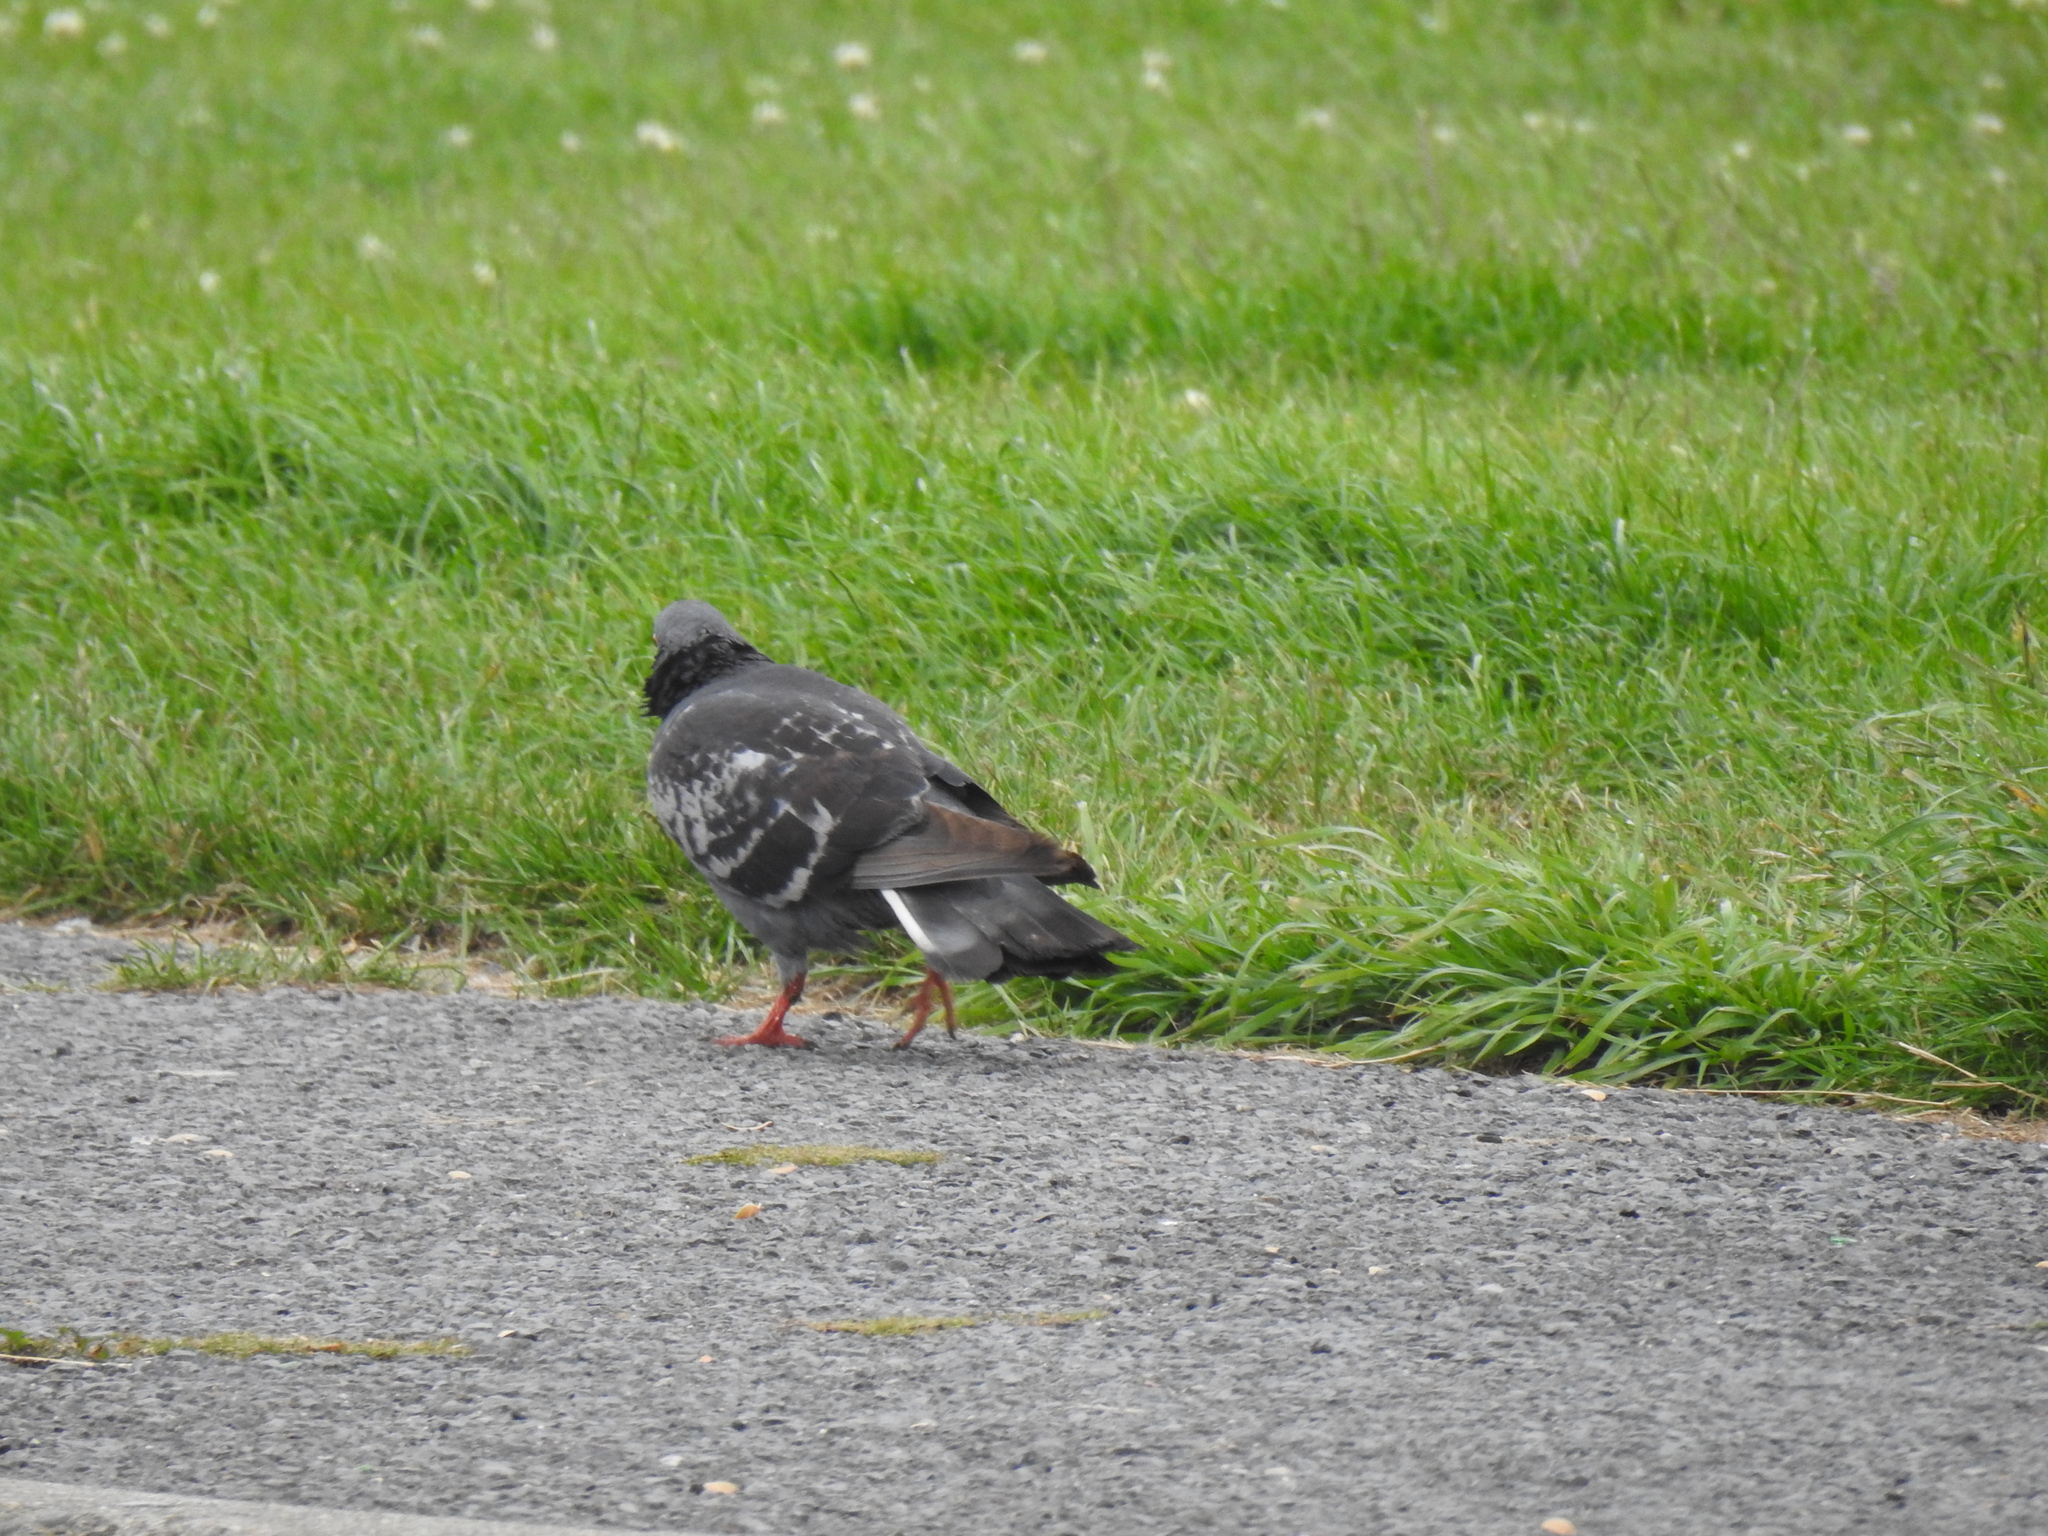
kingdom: Animalia
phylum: Chordata
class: Aves
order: Columbiformes
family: Columbidae
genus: Columba
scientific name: Columba livia
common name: Rock pigeon
